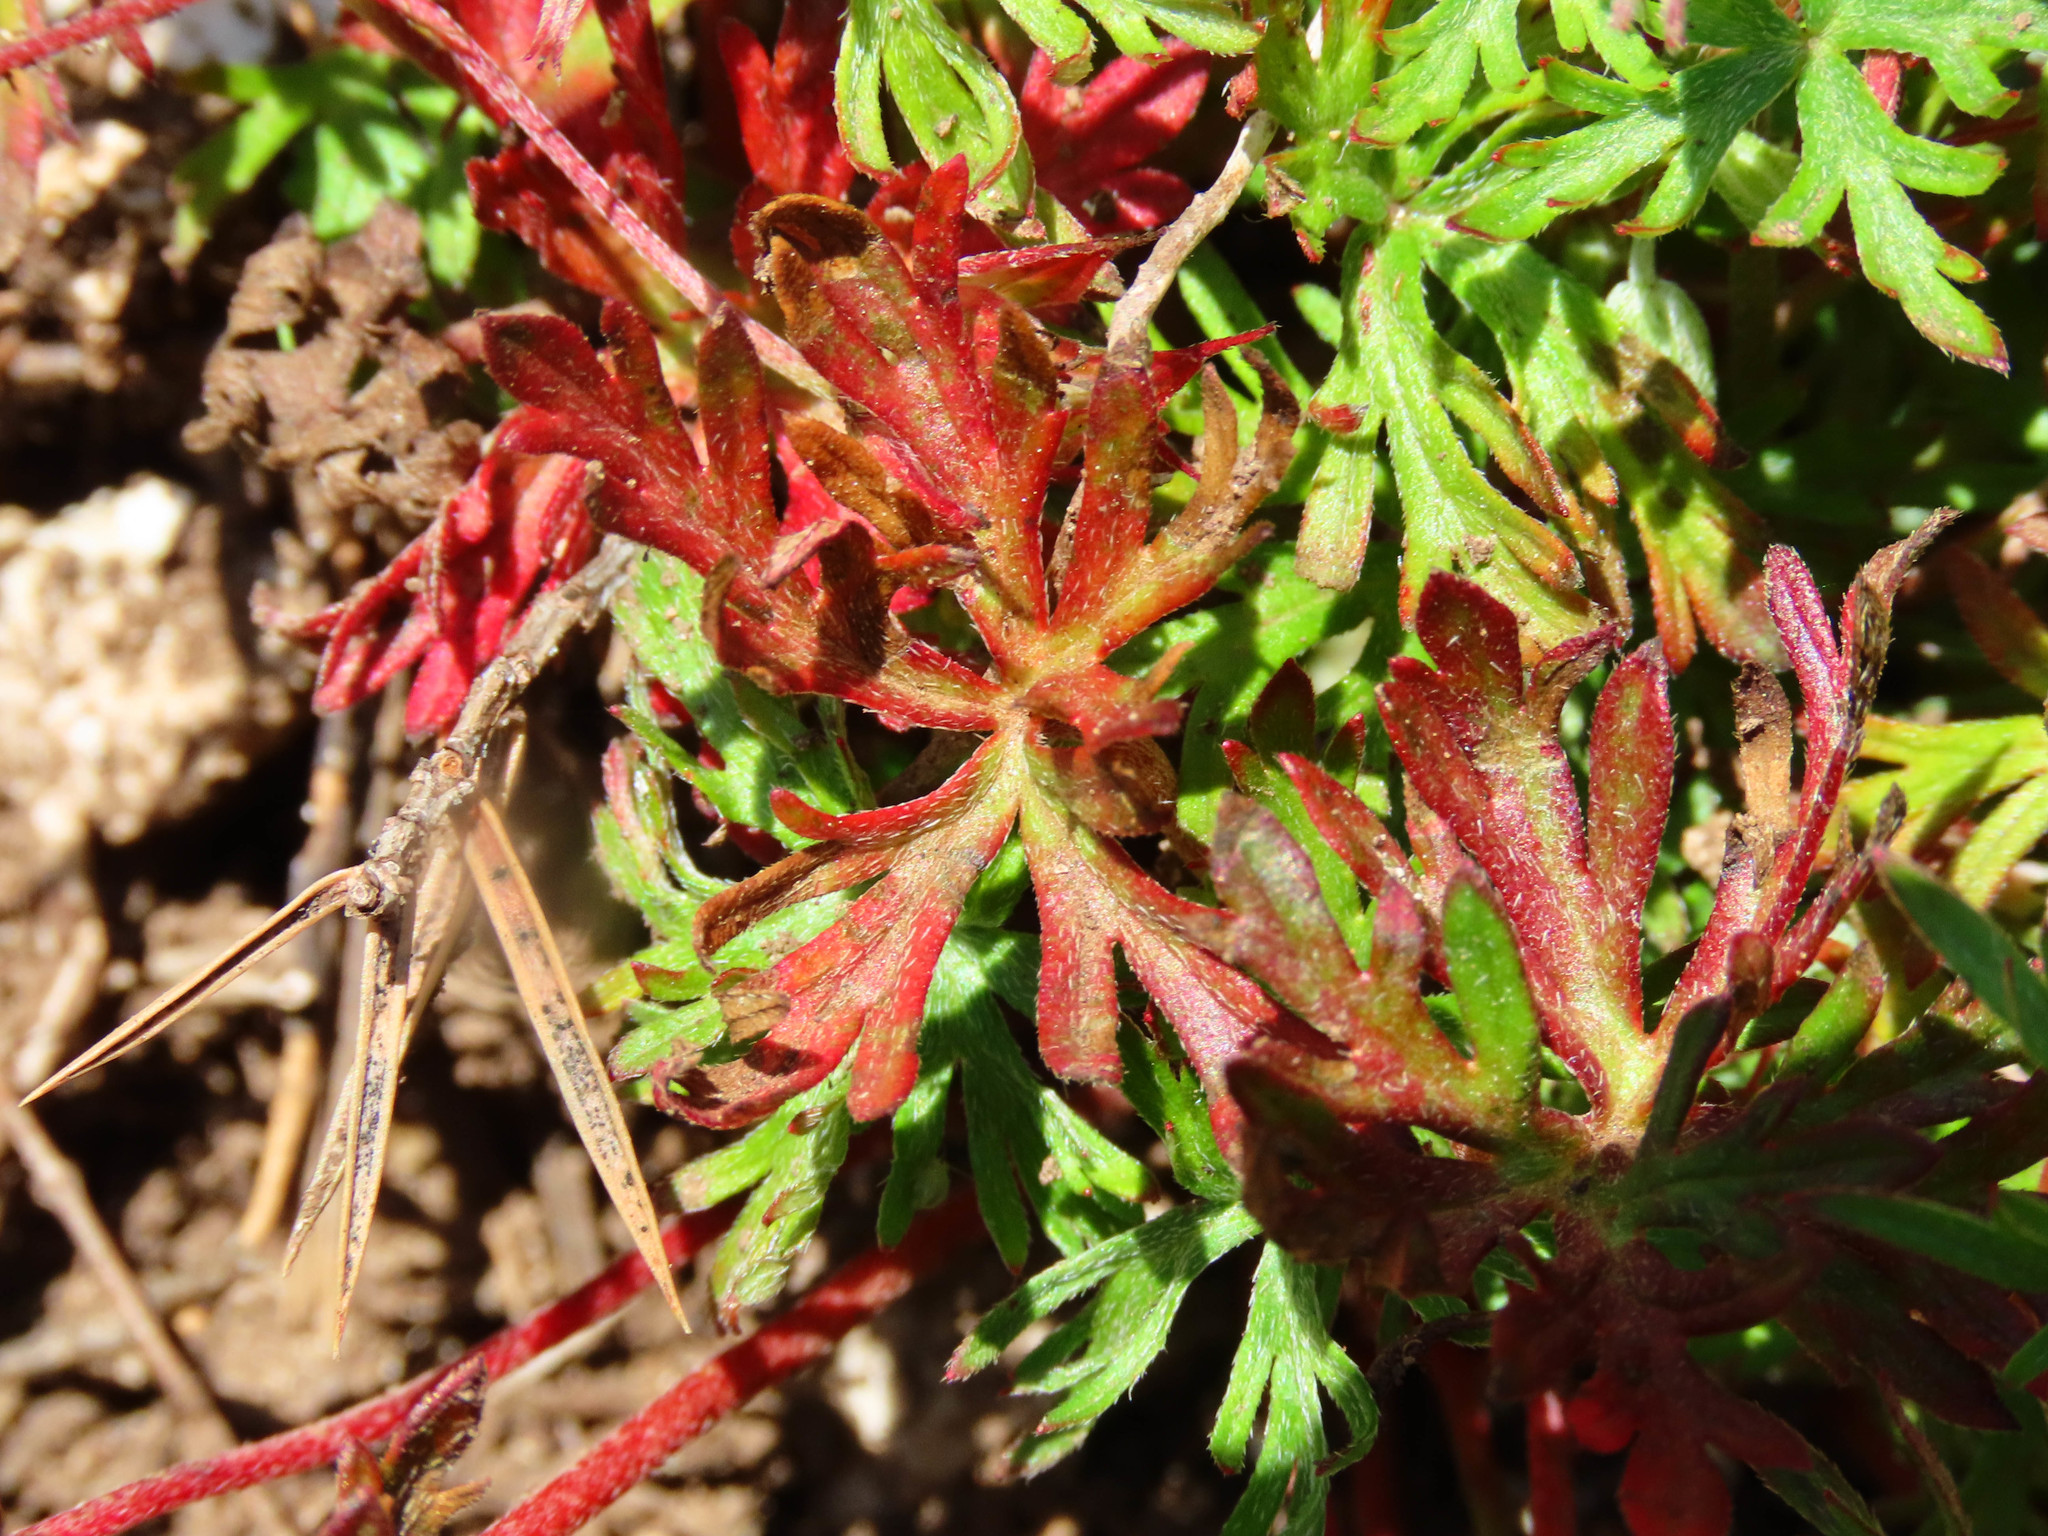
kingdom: Plantae
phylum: Tracheophyta
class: Magnoliopsida
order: Geraniales
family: Geraniaceae
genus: Geranium
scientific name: Geranium columbinum
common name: Long-stalked crane's-bill
